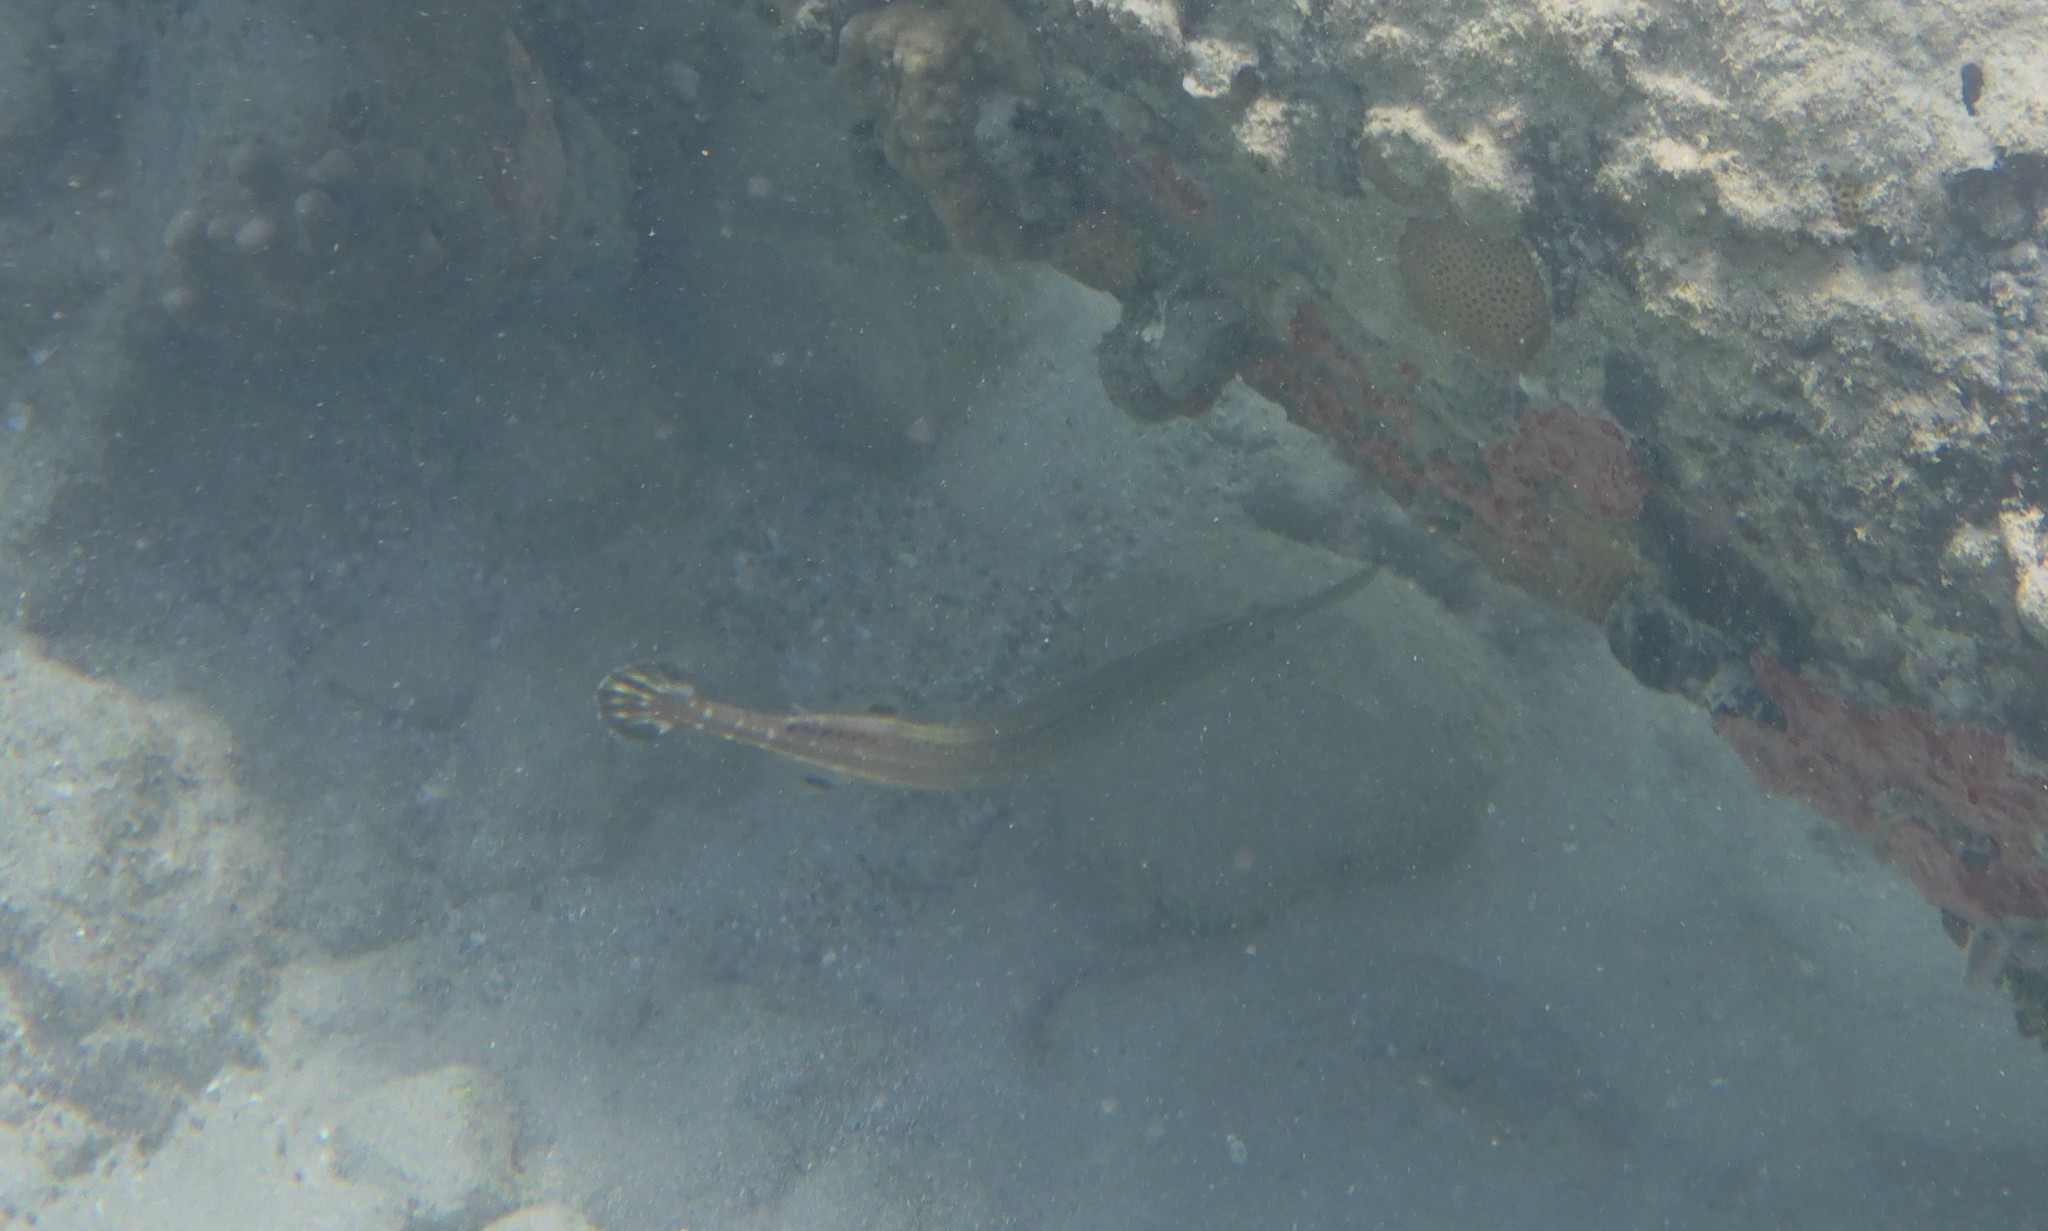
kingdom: Animalia
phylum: Chordata
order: Syngnathiformes
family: Aulostomidae
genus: Aulostomus
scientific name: Aulostomus maculatus
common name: West atlantic trumpetfish
